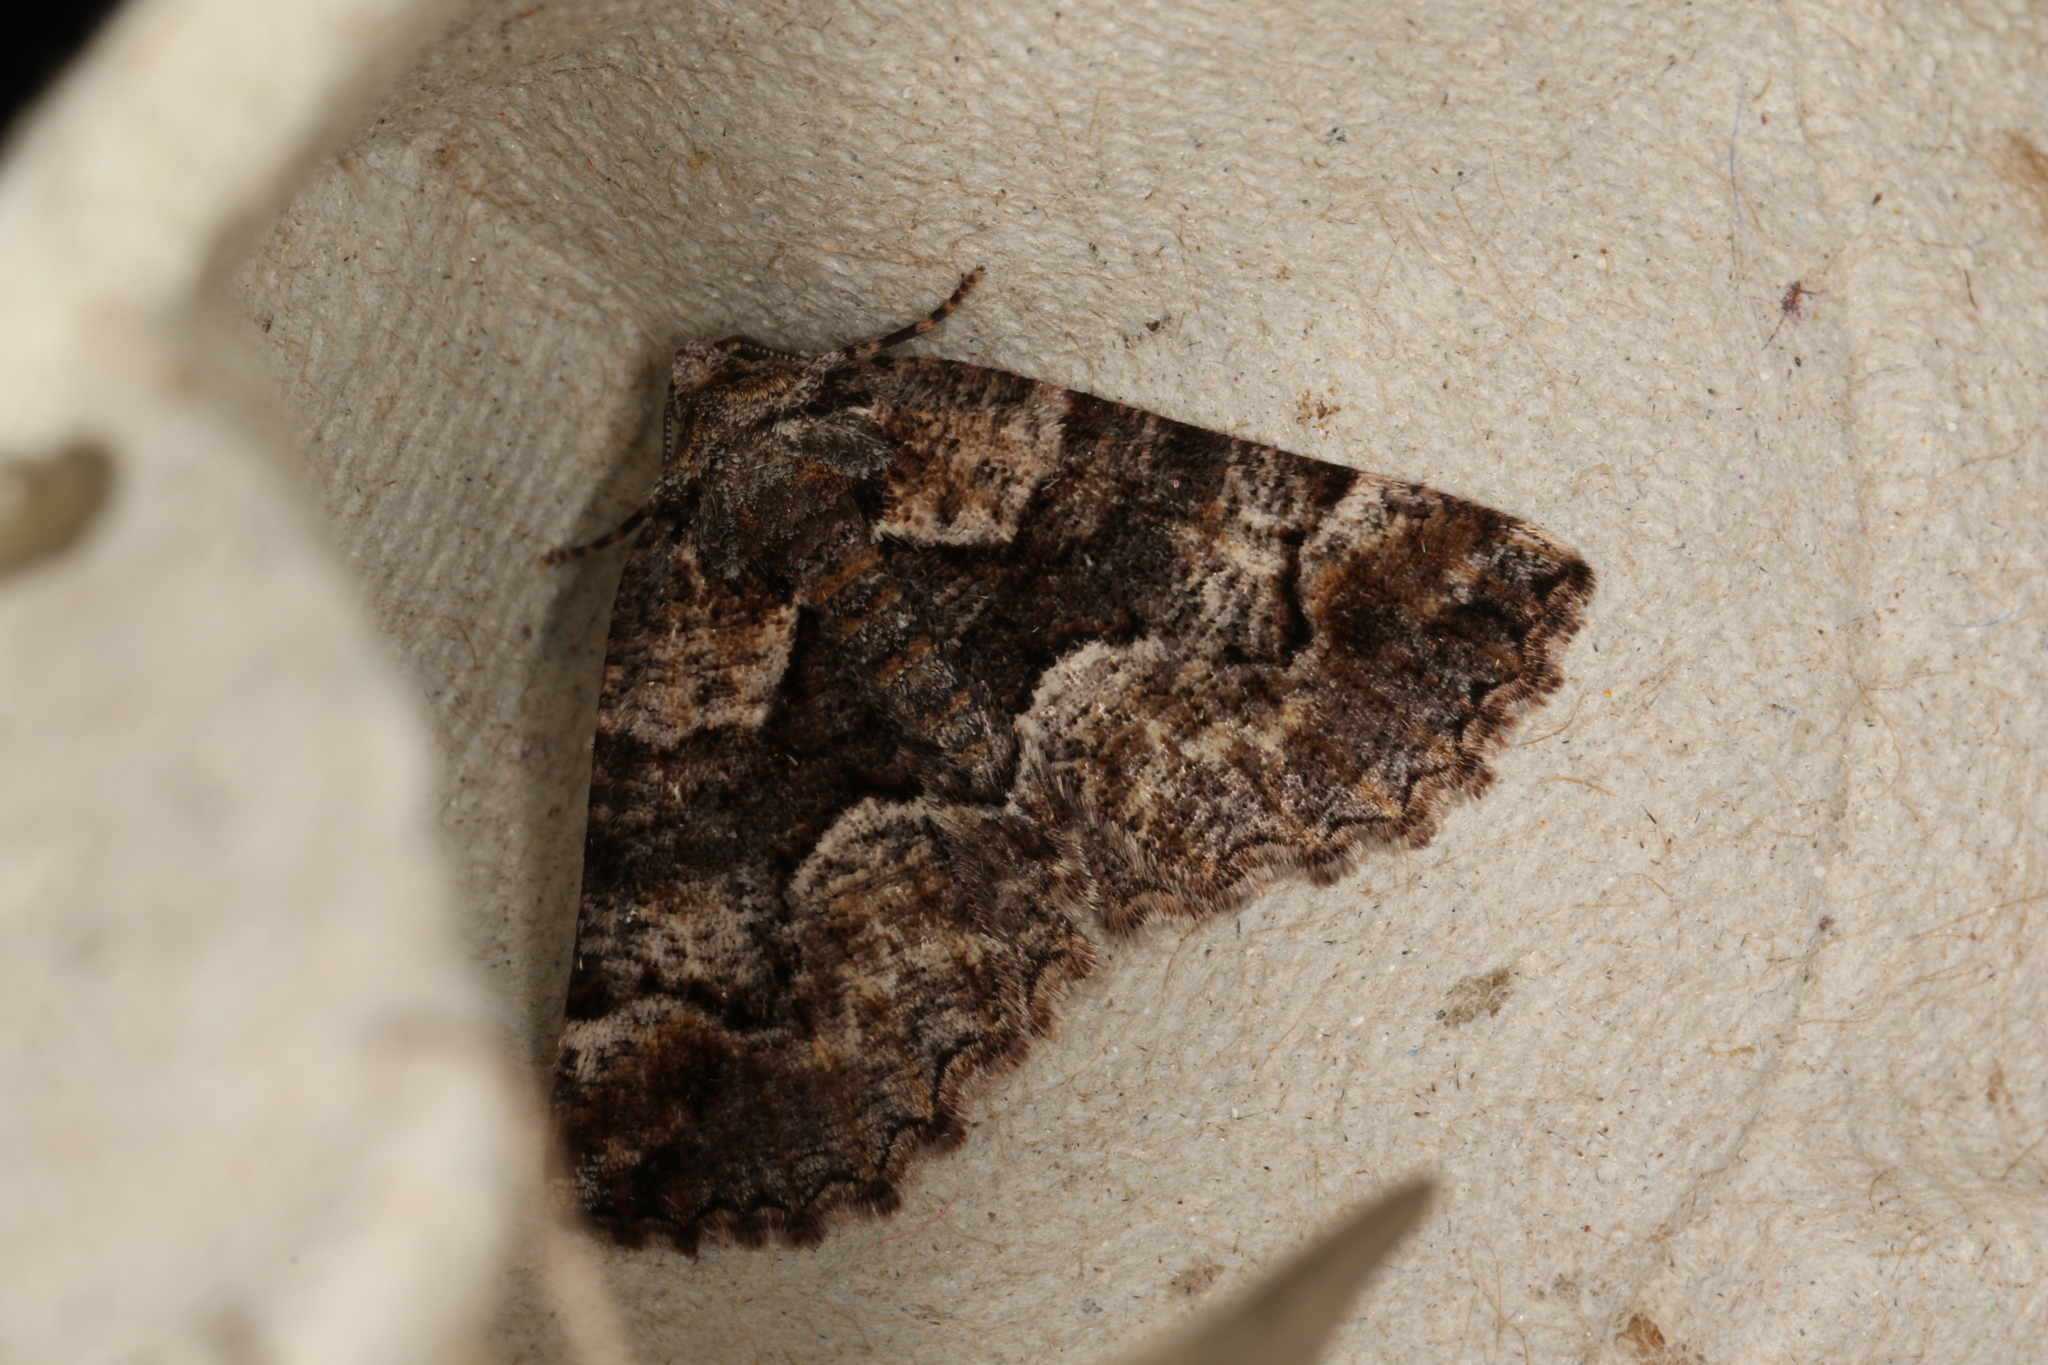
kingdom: Animalia
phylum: Arthropoda
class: Insecta
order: Lepidoptera
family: Geometridae
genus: Gastrina
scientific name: Gastrina cristaria
